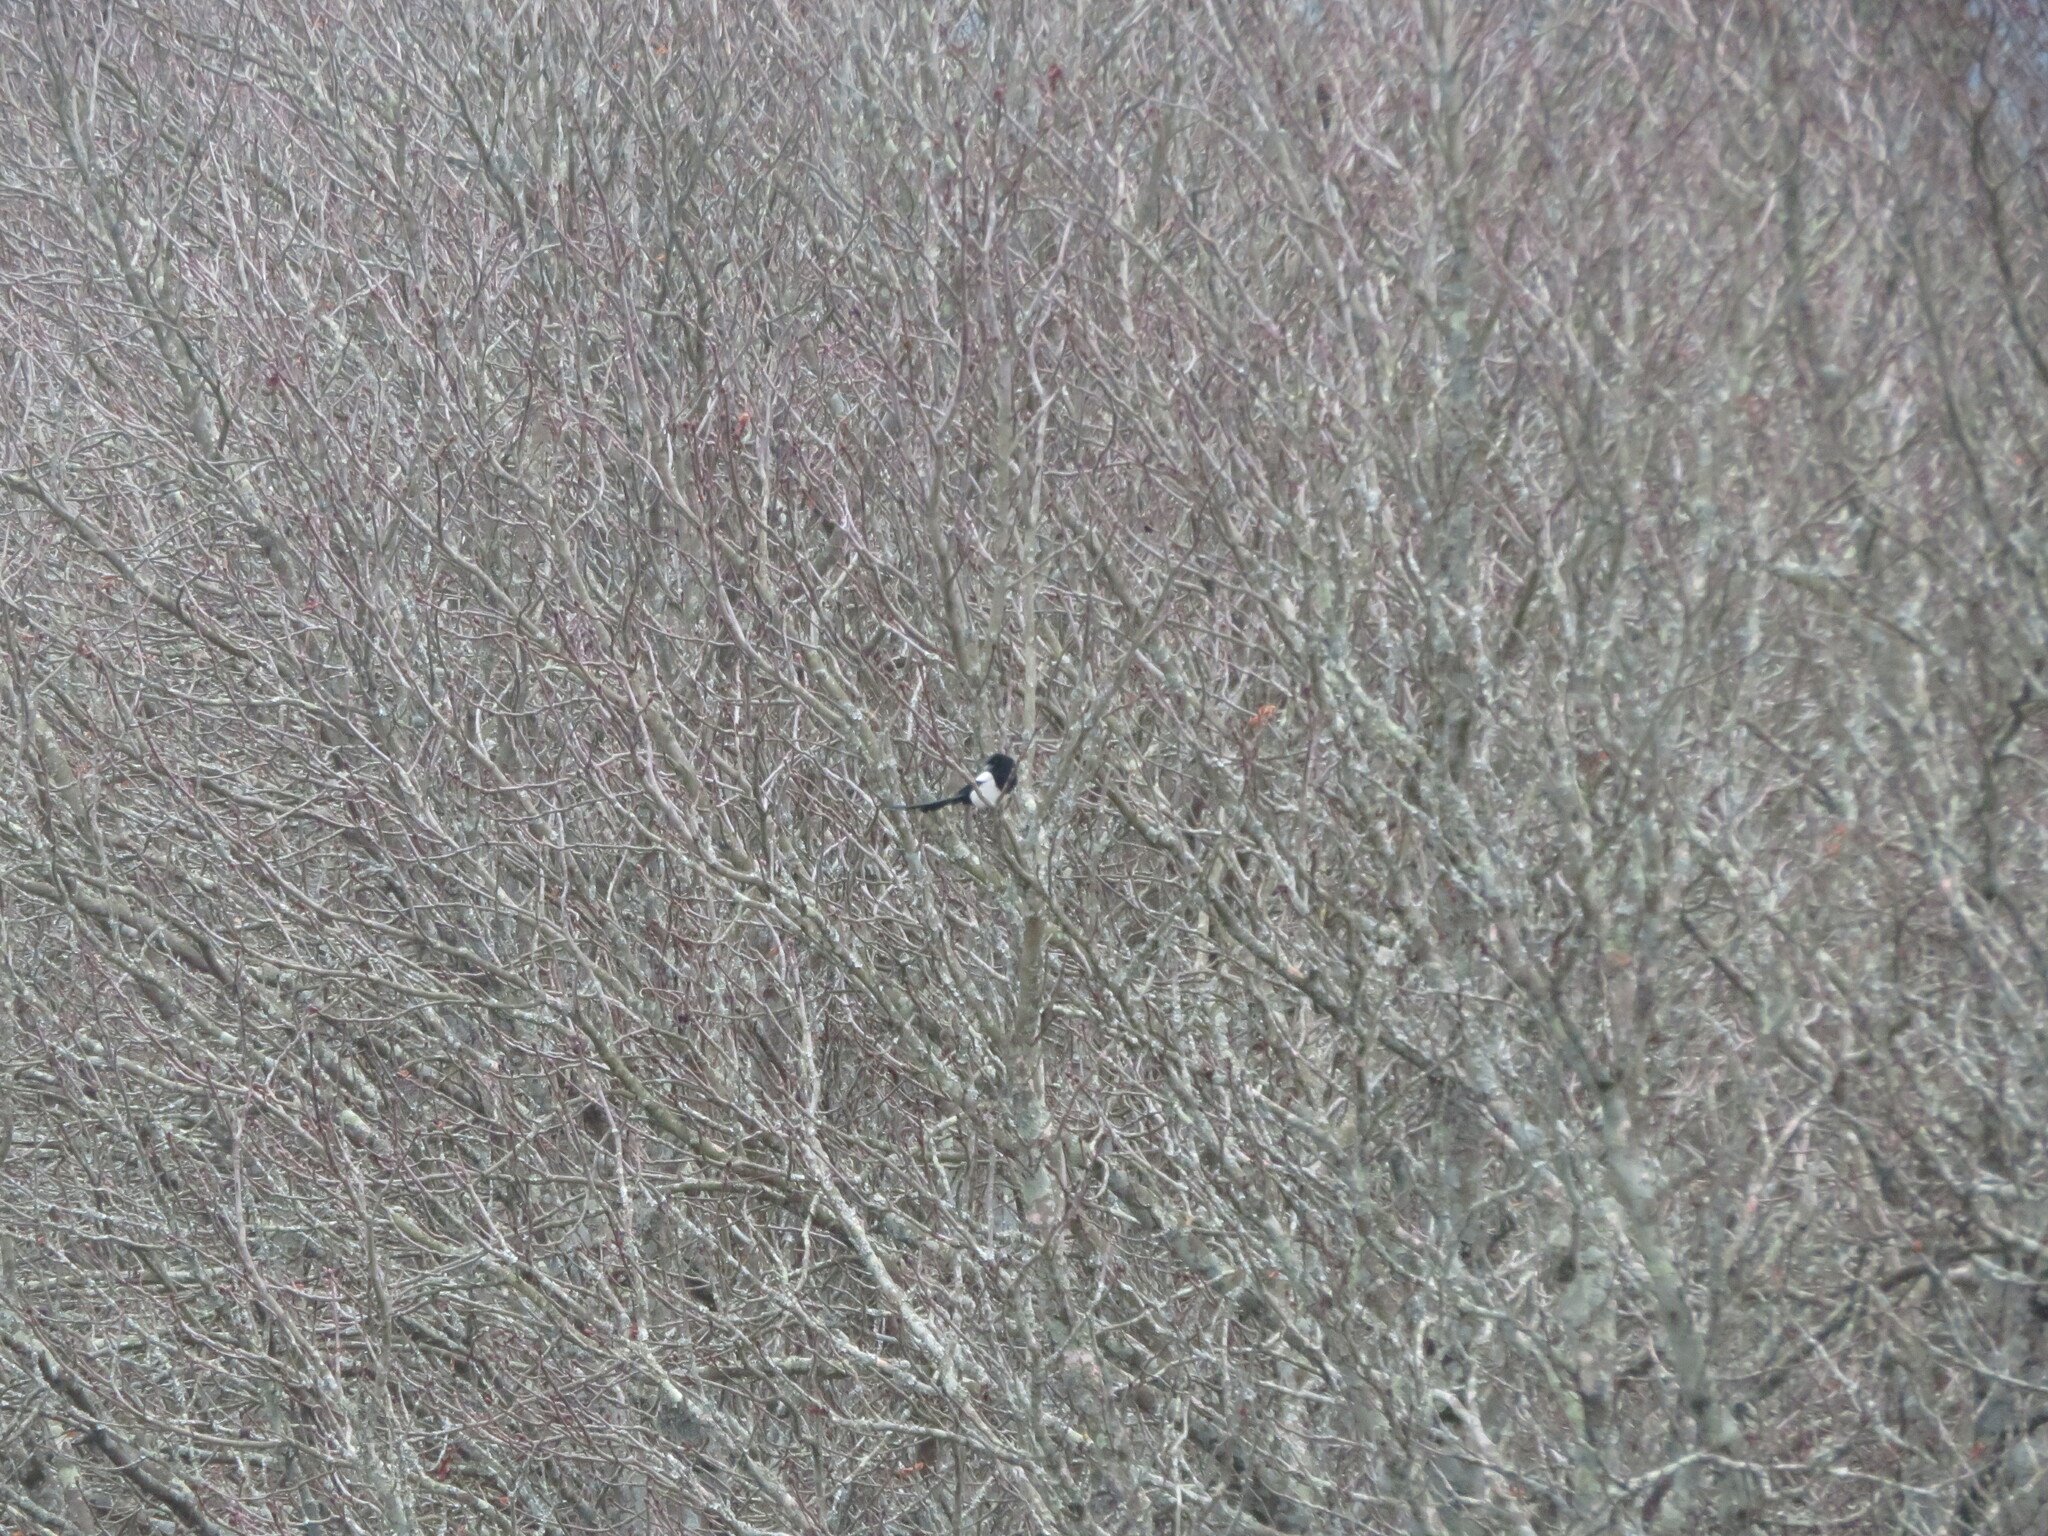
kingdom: Animalia
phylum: Chordata
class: Aves
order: Passeriformes
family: Corvidae
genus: Pica
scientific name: Pica pica
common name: Eurasian magpie
